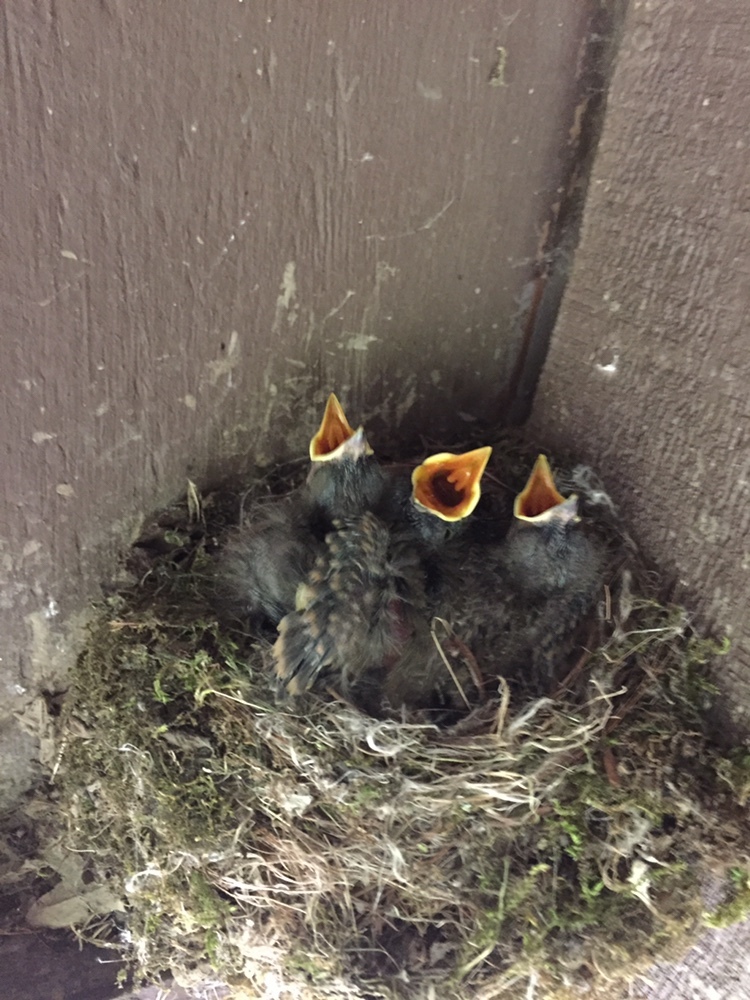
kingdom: Animalia
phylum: Chordata
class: Aves
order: Passeriformes
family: Tyrannidae
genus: Sayornis
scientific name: Sayornis phoebe
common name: Eastern phoebe
